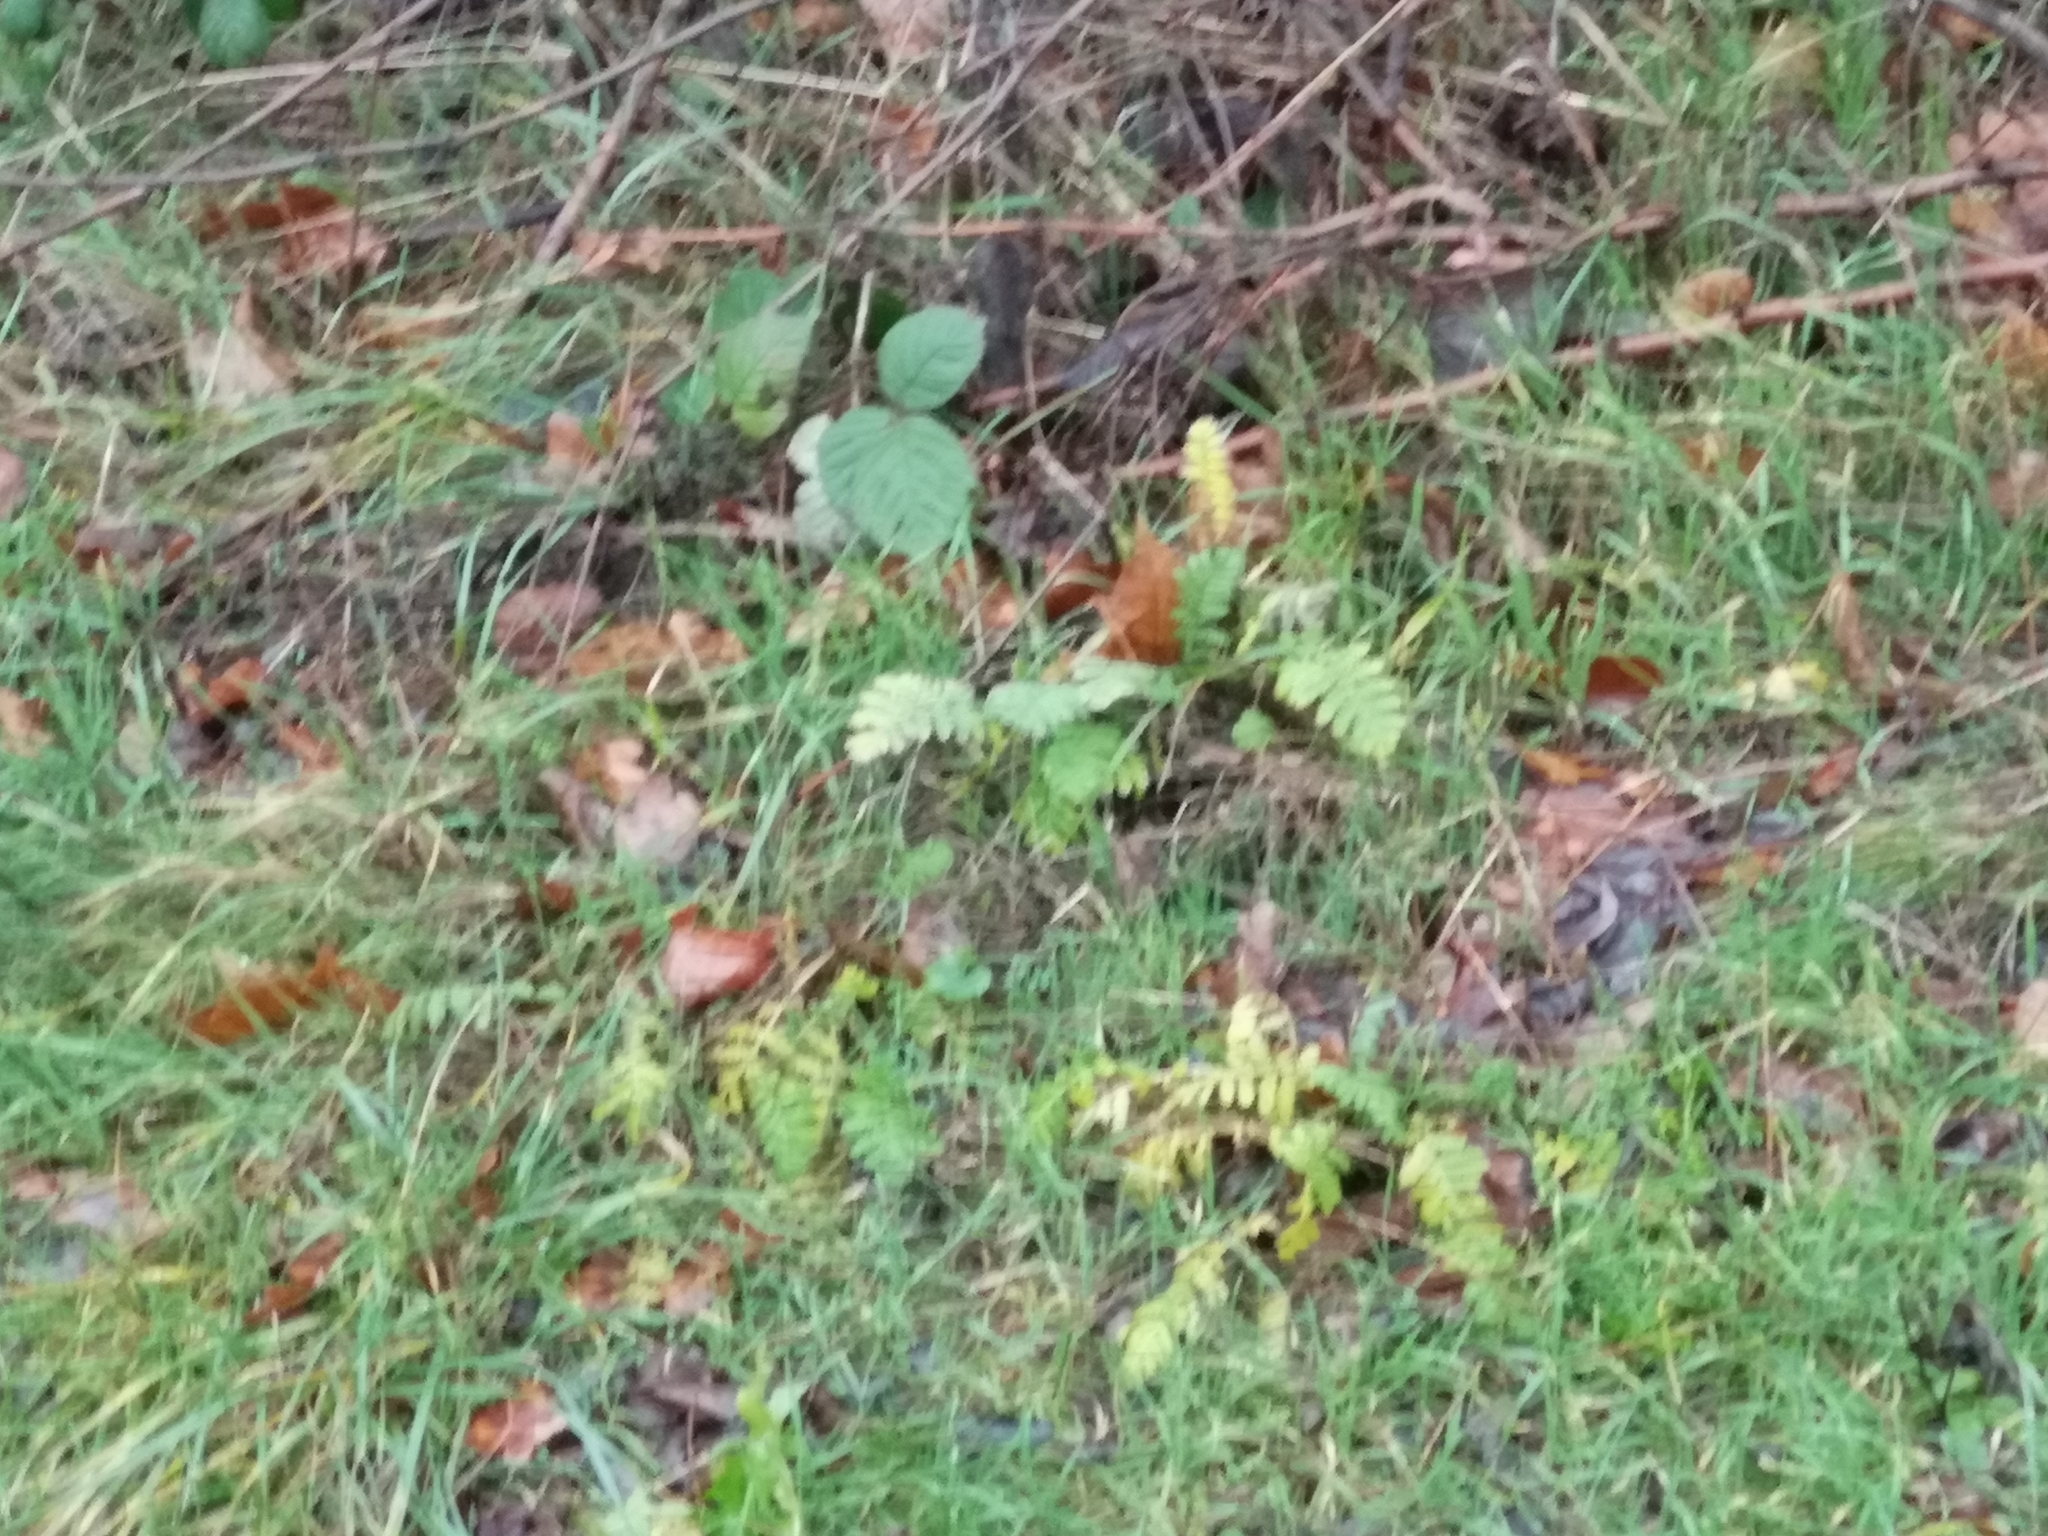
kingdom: Plantae
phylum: Tracheophyta
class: Magnoliopsida
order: Asterales
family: Asteraceae
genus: Tanacetum
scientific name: Tanacetum vulgare
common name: Common tansy
